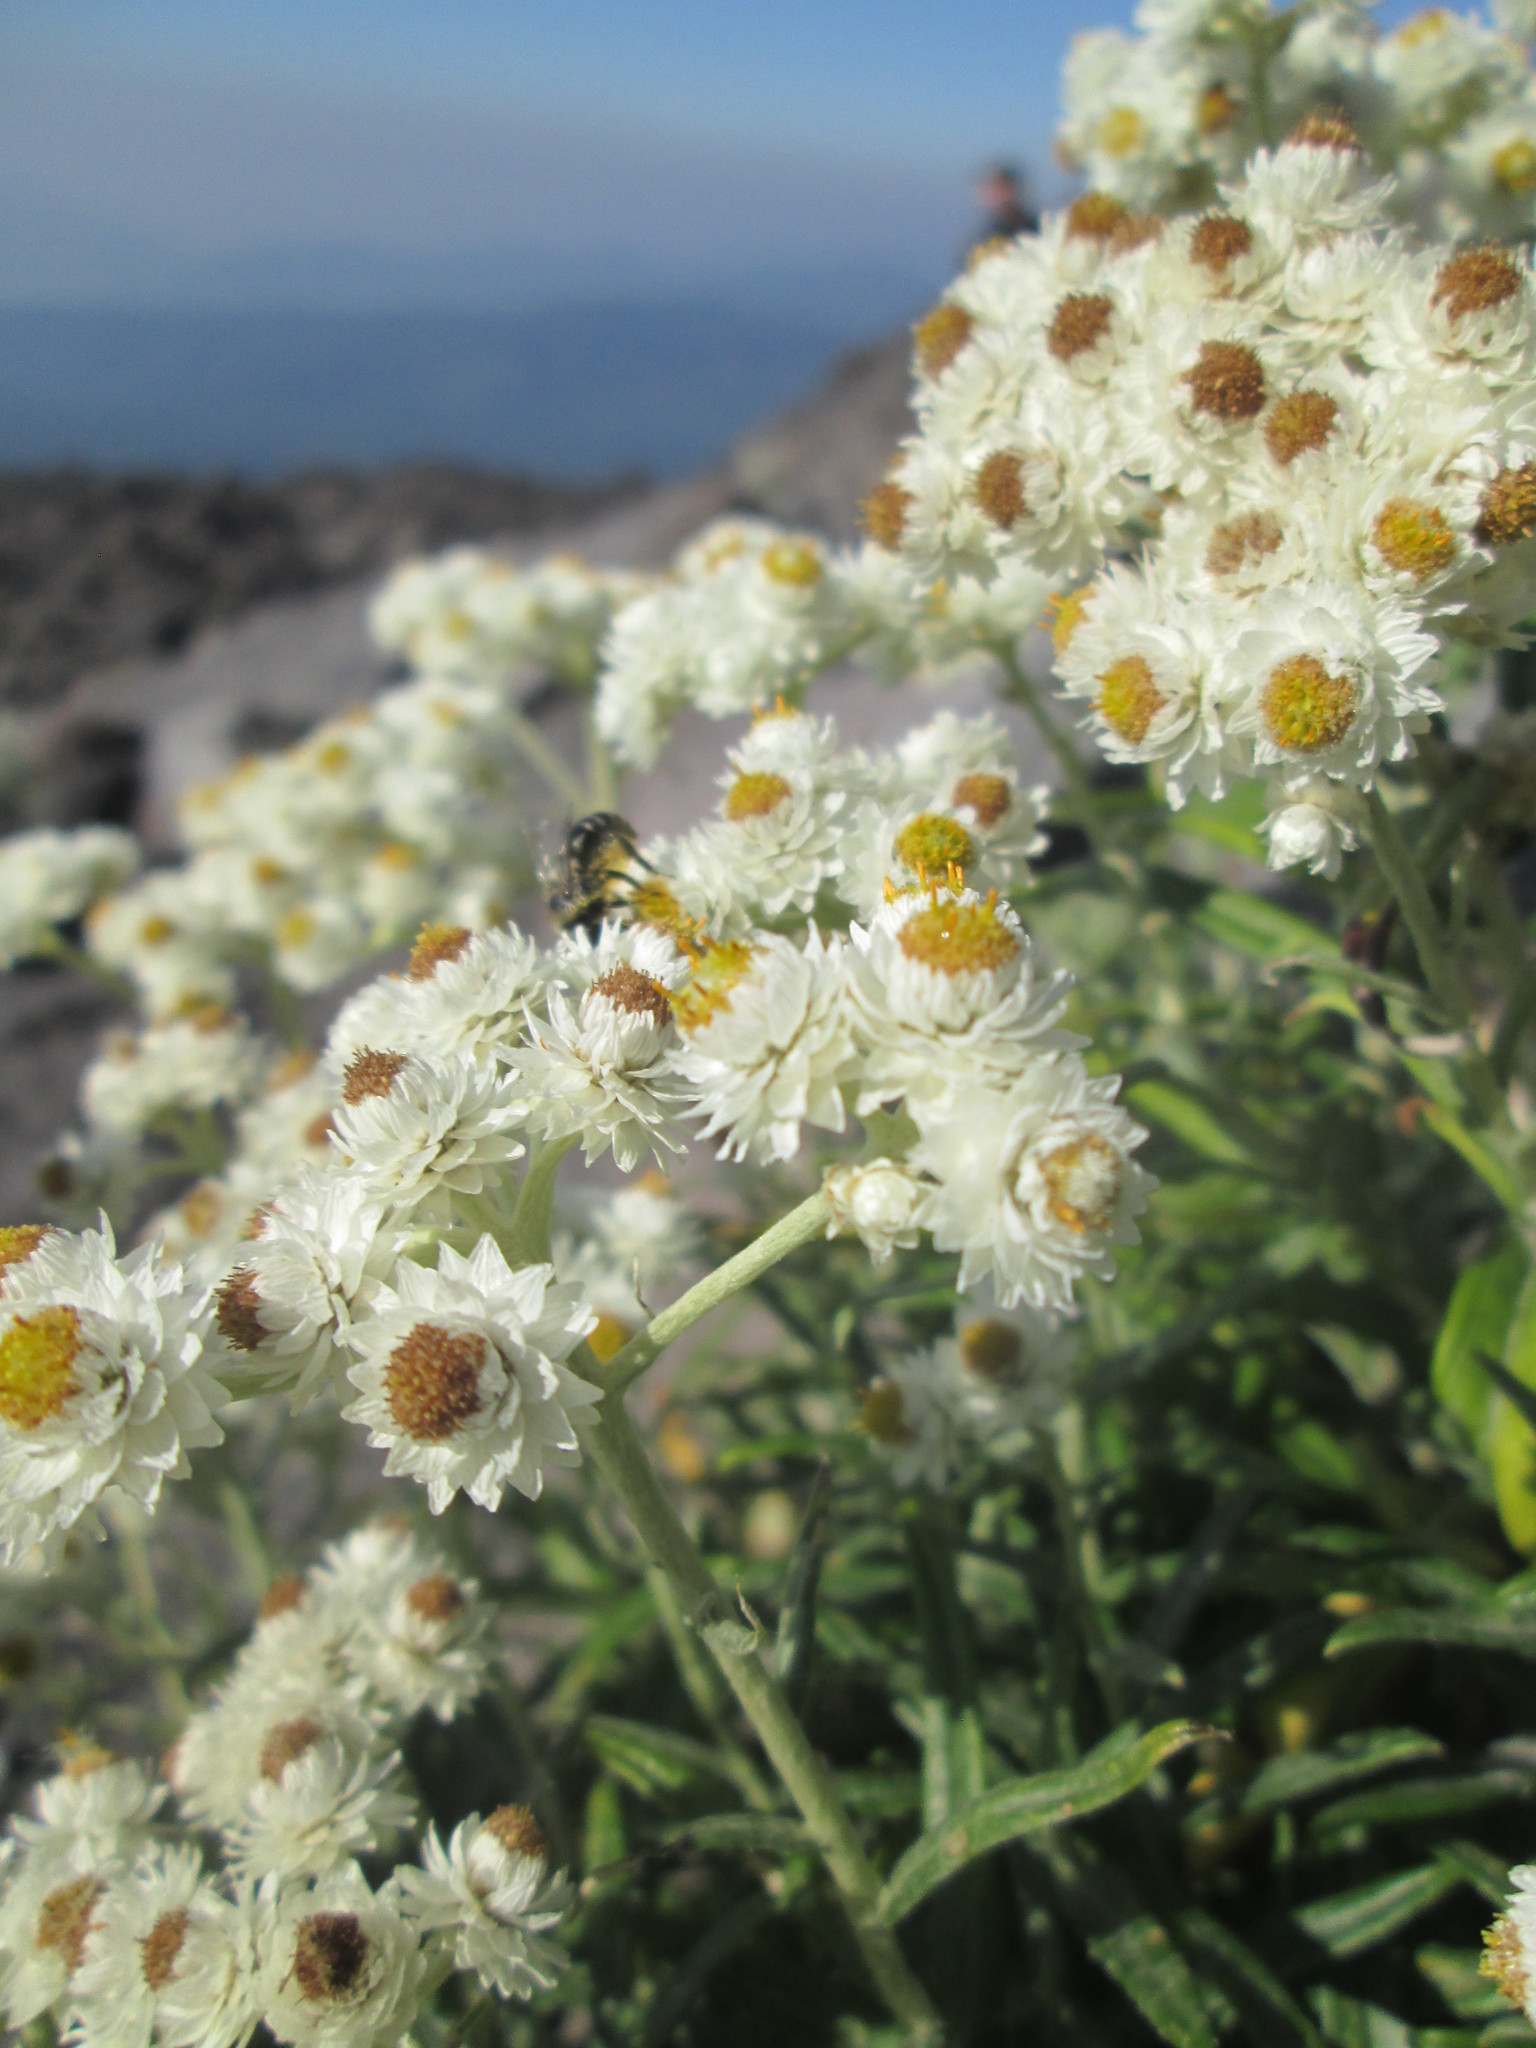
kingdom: Plantae
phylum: Tracheophyta
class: Magnoliopsida
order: Asterales
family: Asteraceae
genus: Anaphalis
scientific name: Anaphalis margaritacea
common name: Pearly everlasting
